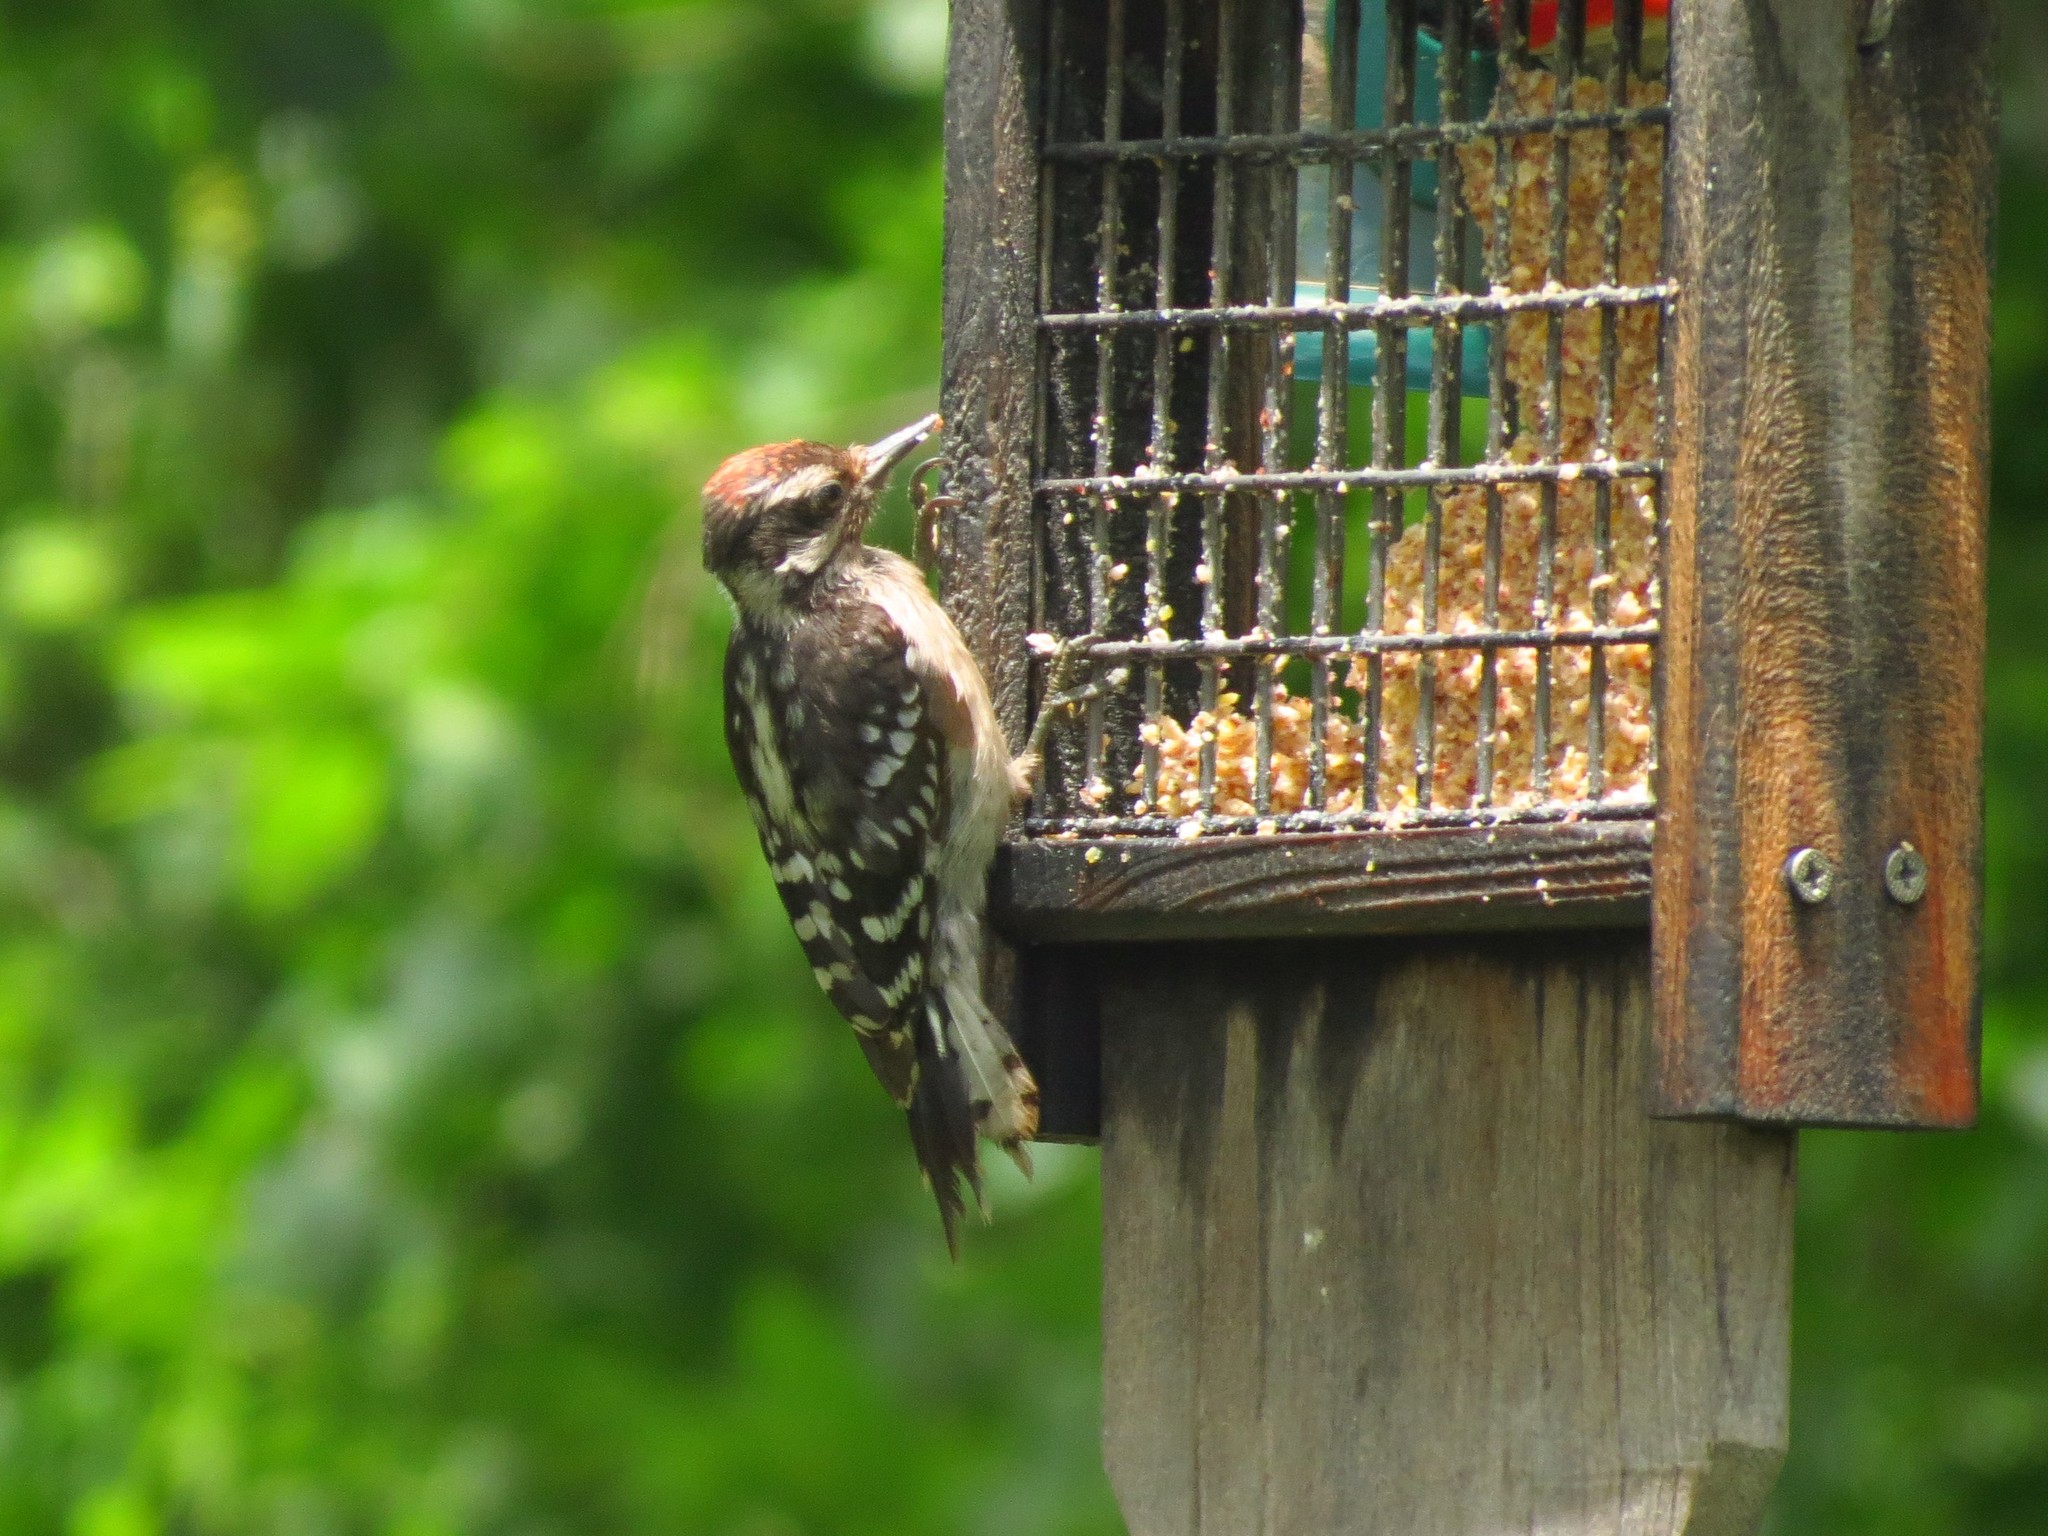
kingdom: Animalia
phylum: Chordata
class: Aves
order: Piciformes
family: Picidae
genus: Dryobates
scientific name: Dryobates pubescens
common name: Downy woodpecker
